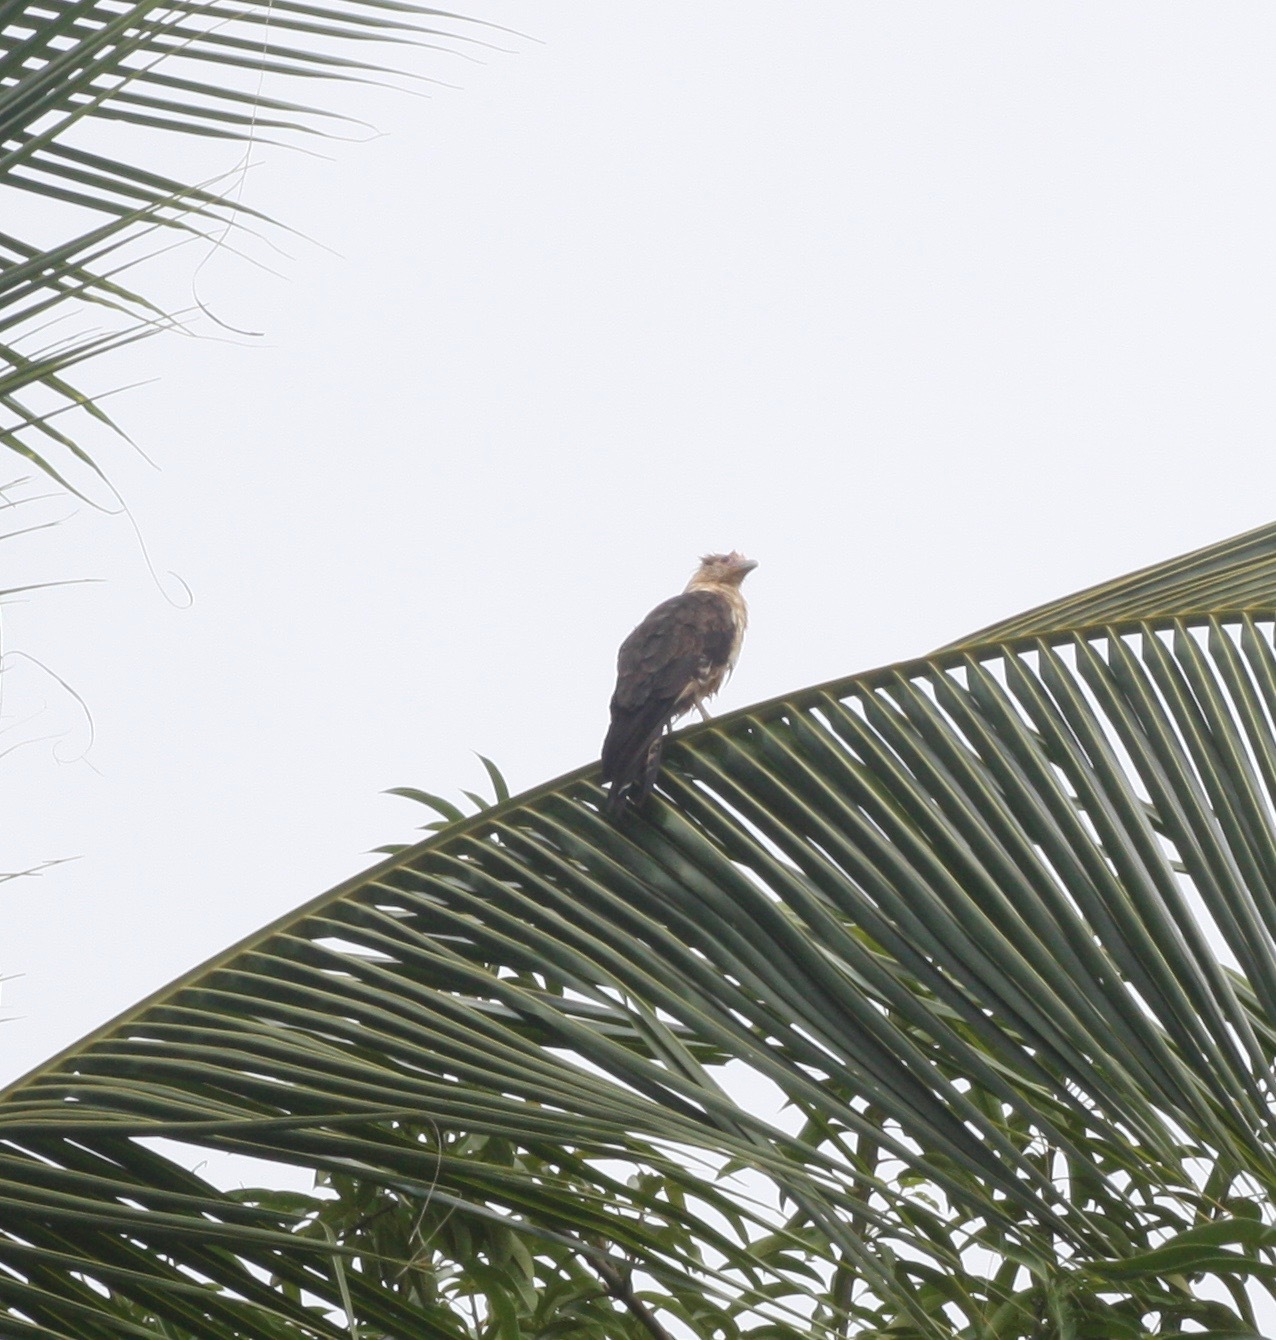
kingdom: Animalia
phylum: Chordata
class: Aves
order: Falconiformes
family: Falconidae
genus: Daptrius
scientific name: Daptrius
